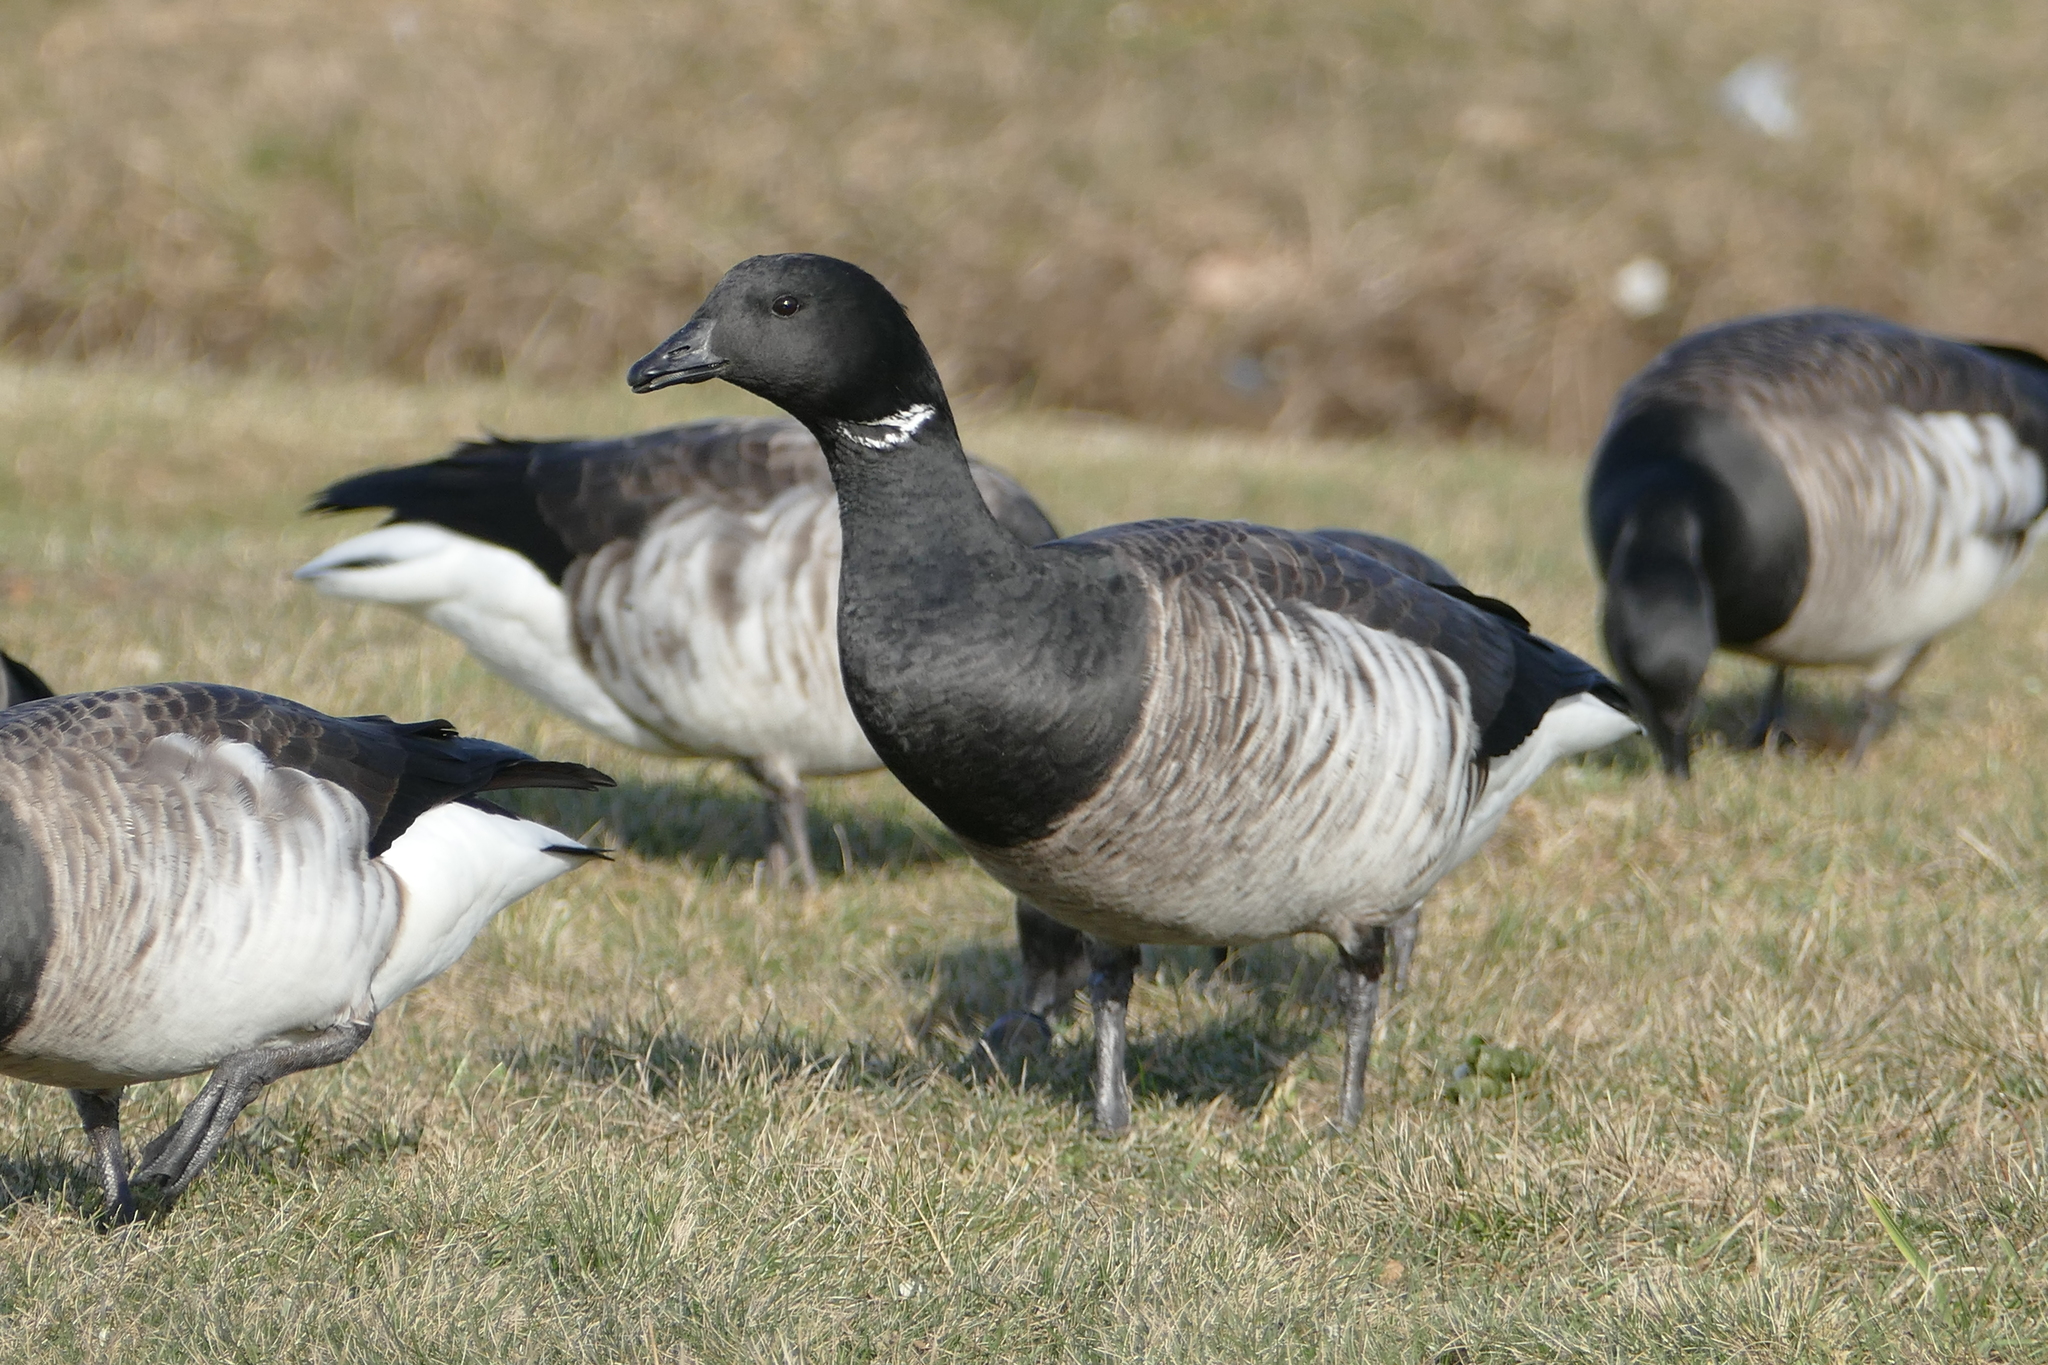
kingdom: Animalia
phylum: Chordata
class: Aves
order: Anseriformes
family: Anatidae
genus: Branta
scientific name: Branta bernicla
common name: Brant goose
